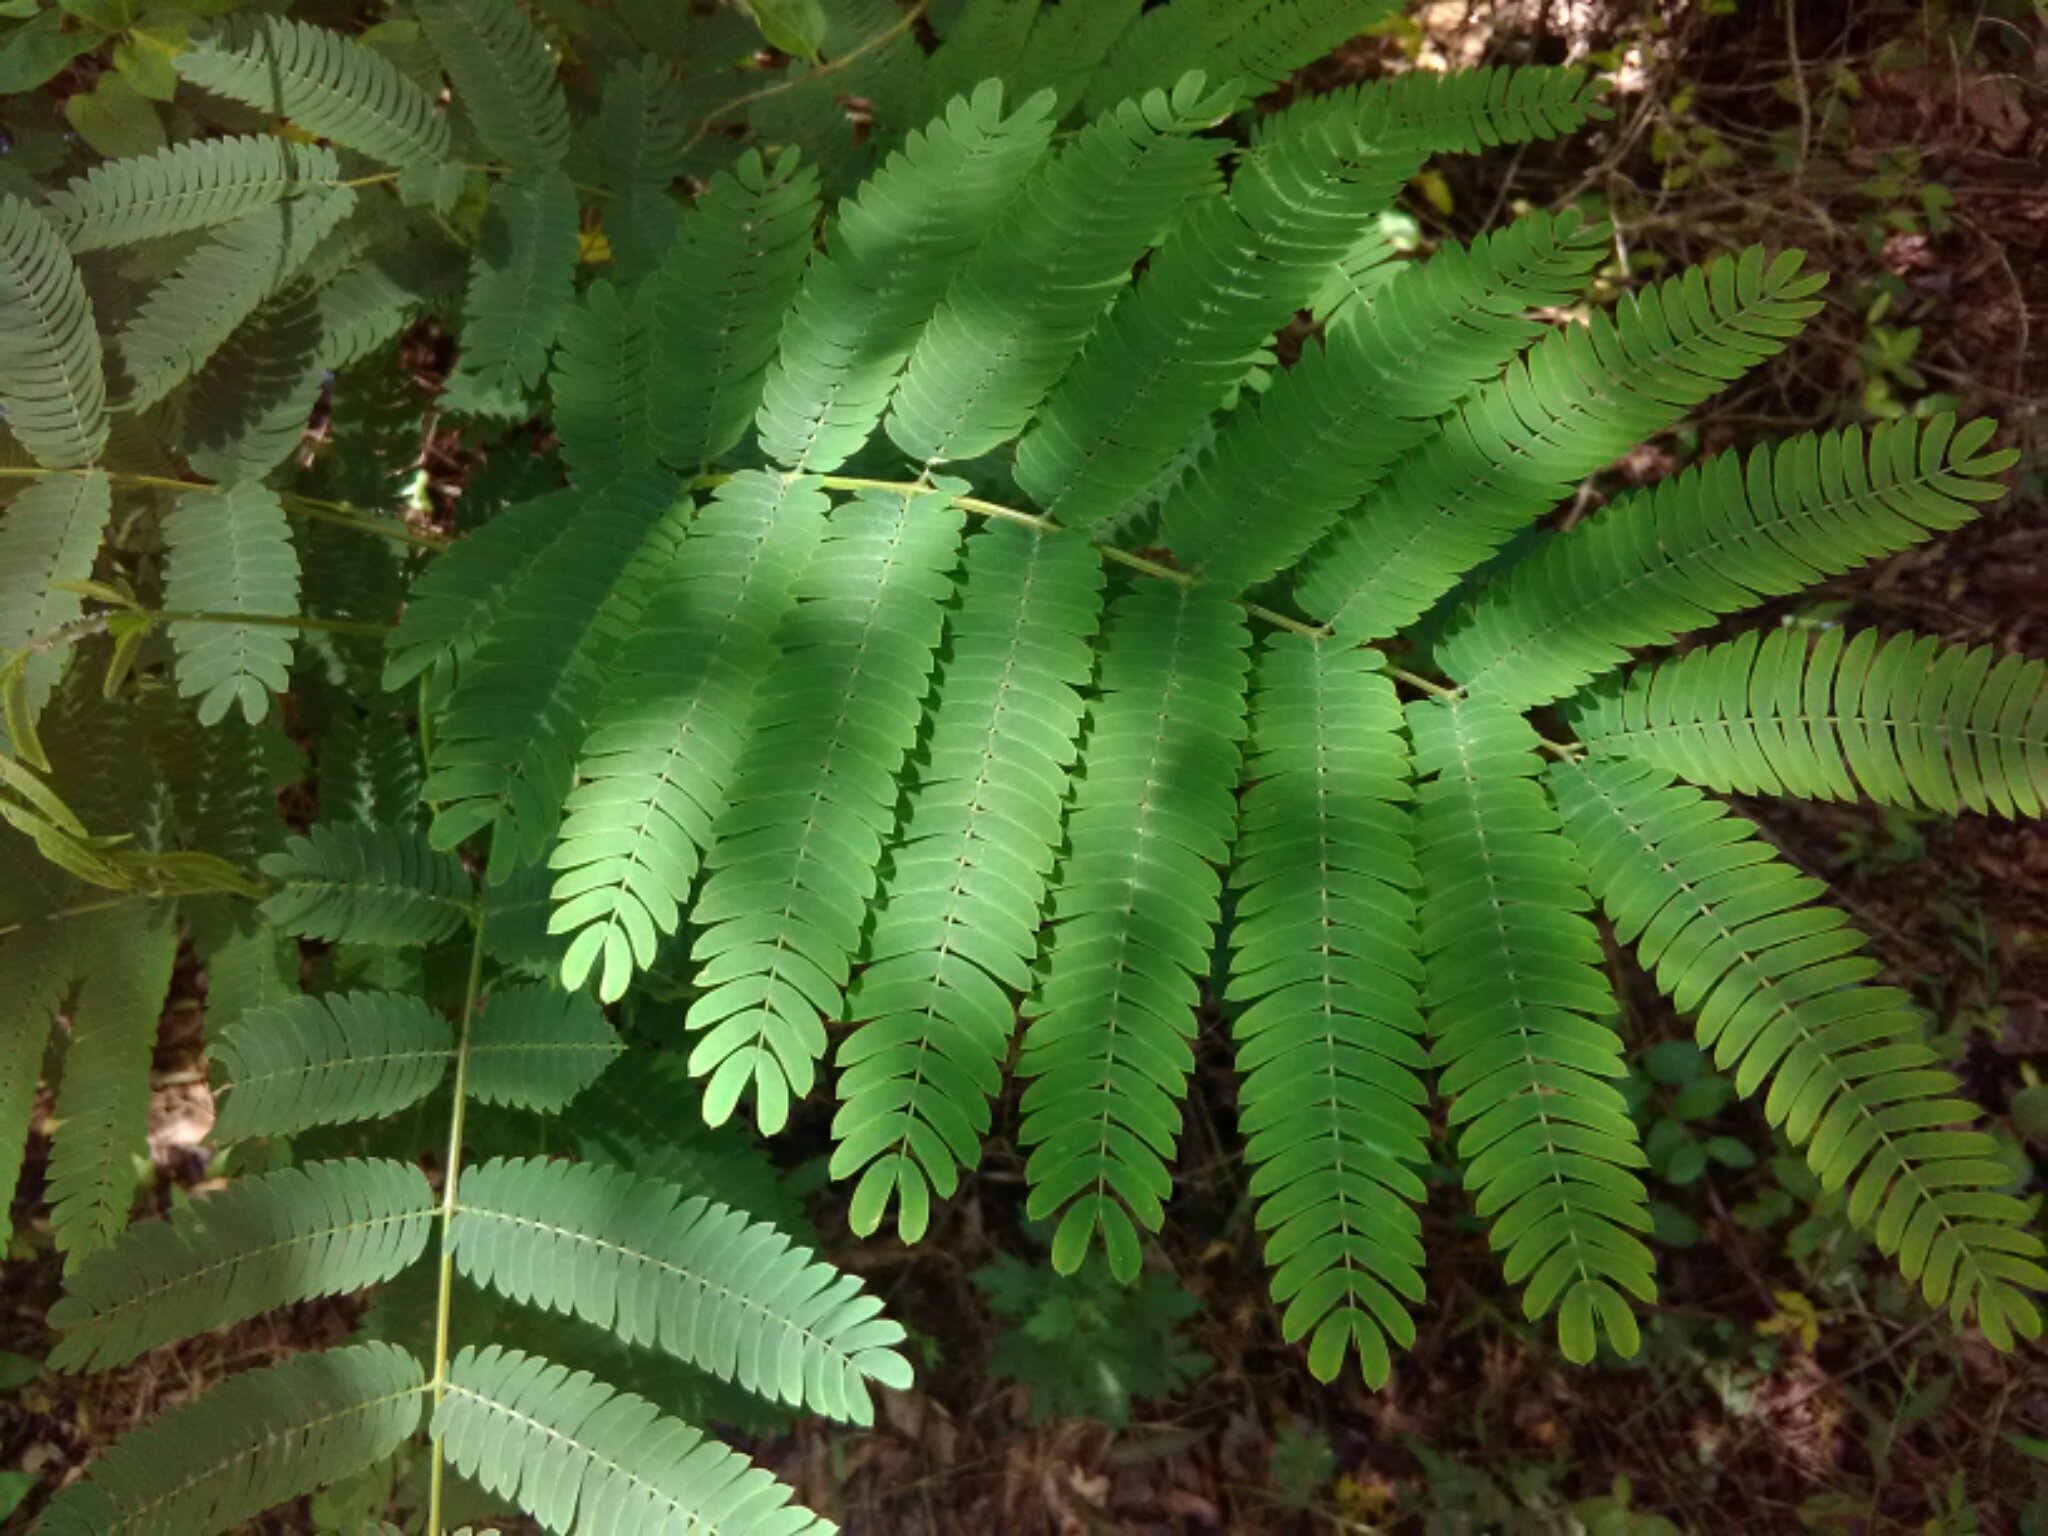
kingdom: Plantae
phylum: Tracheophyta
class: Magnoliopsida
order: Fabales
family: Fabaceae
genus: Albizia
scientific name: Albizia julibrissin
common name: Silktree
